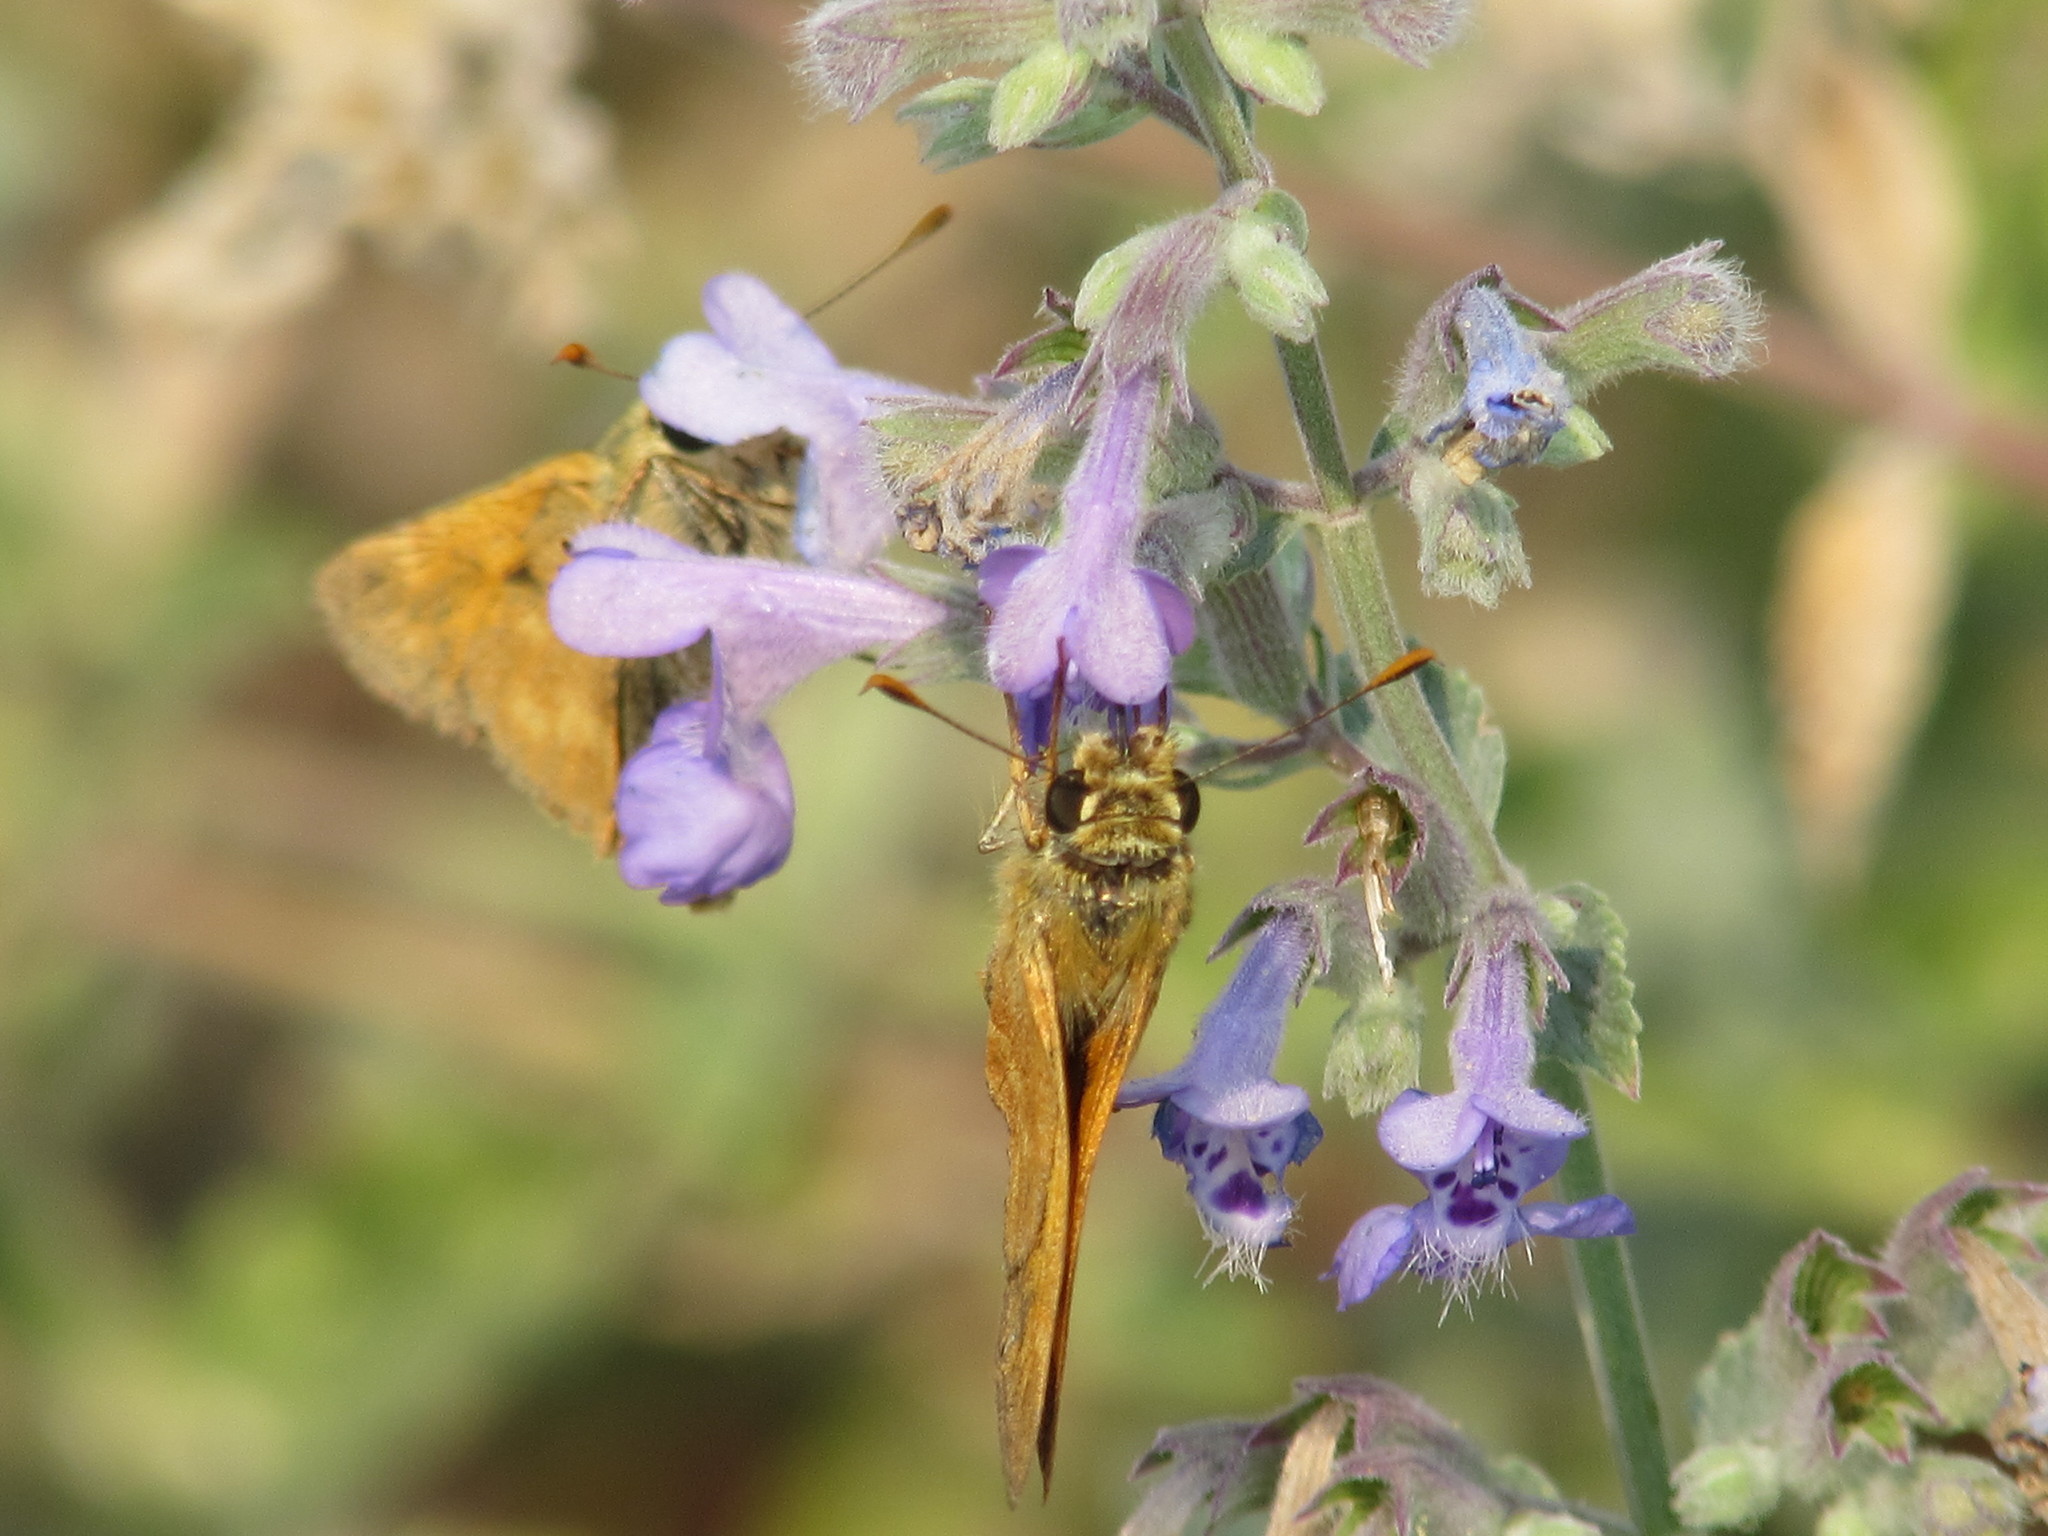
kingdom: Animalia
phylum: Arthropoda
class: Insecta
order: Lepidoptera
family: Hesperiidae
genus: Ochlodes
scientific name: Ochlodes sylvanoides
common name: Woodland skipper
